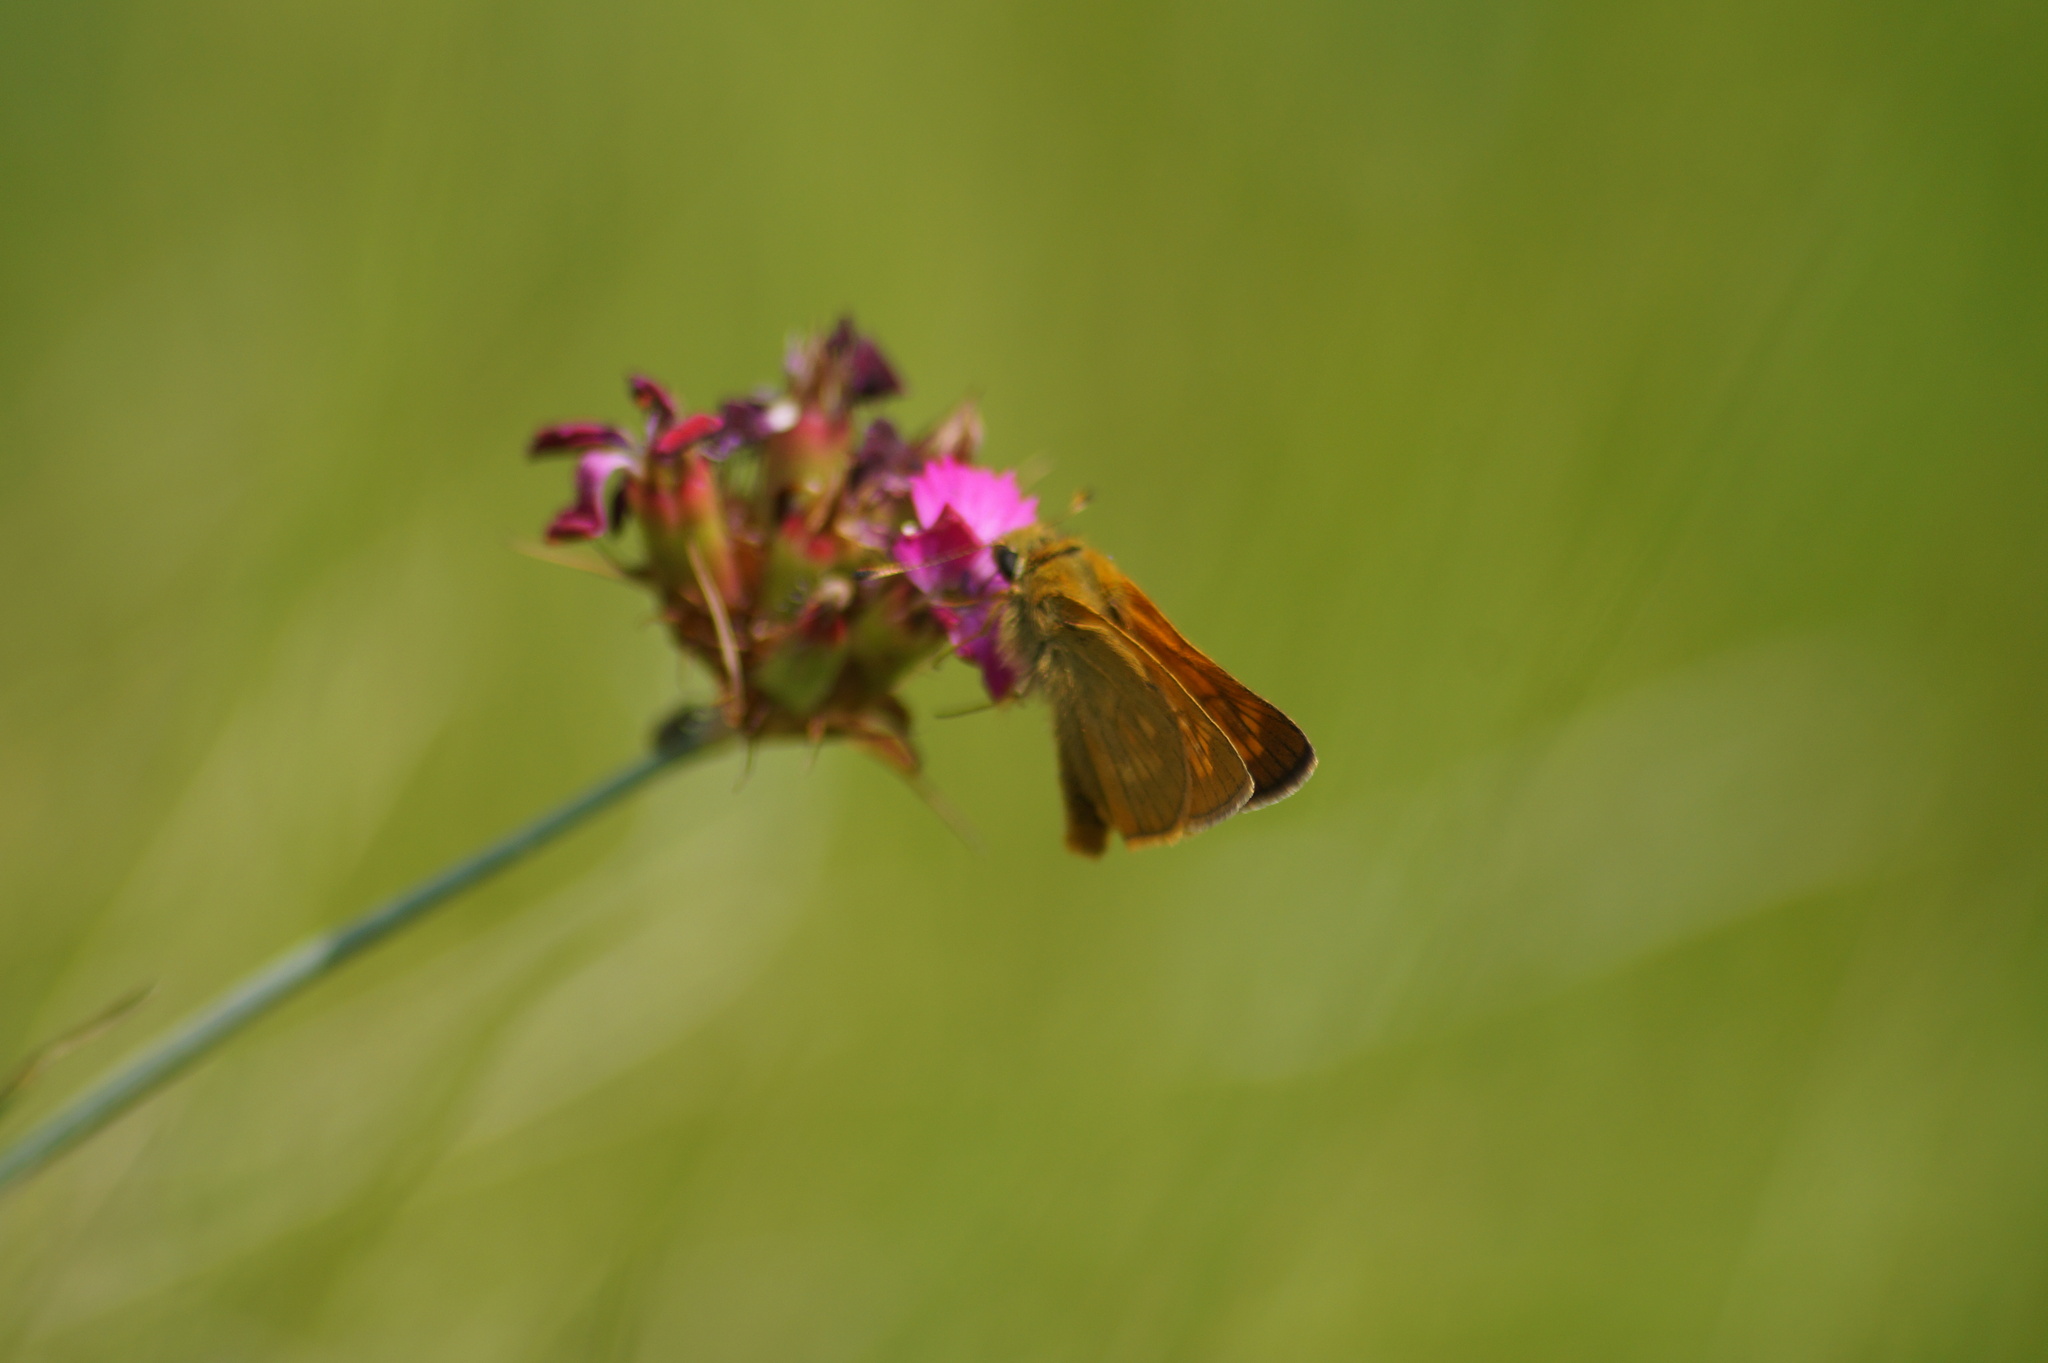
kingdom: Animalia
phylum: Arthropoda
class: Insecta
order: Lepidoptera
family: Hesperiidae
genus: Ochlodes
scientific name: Ochlodes venata
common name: Large skipper
